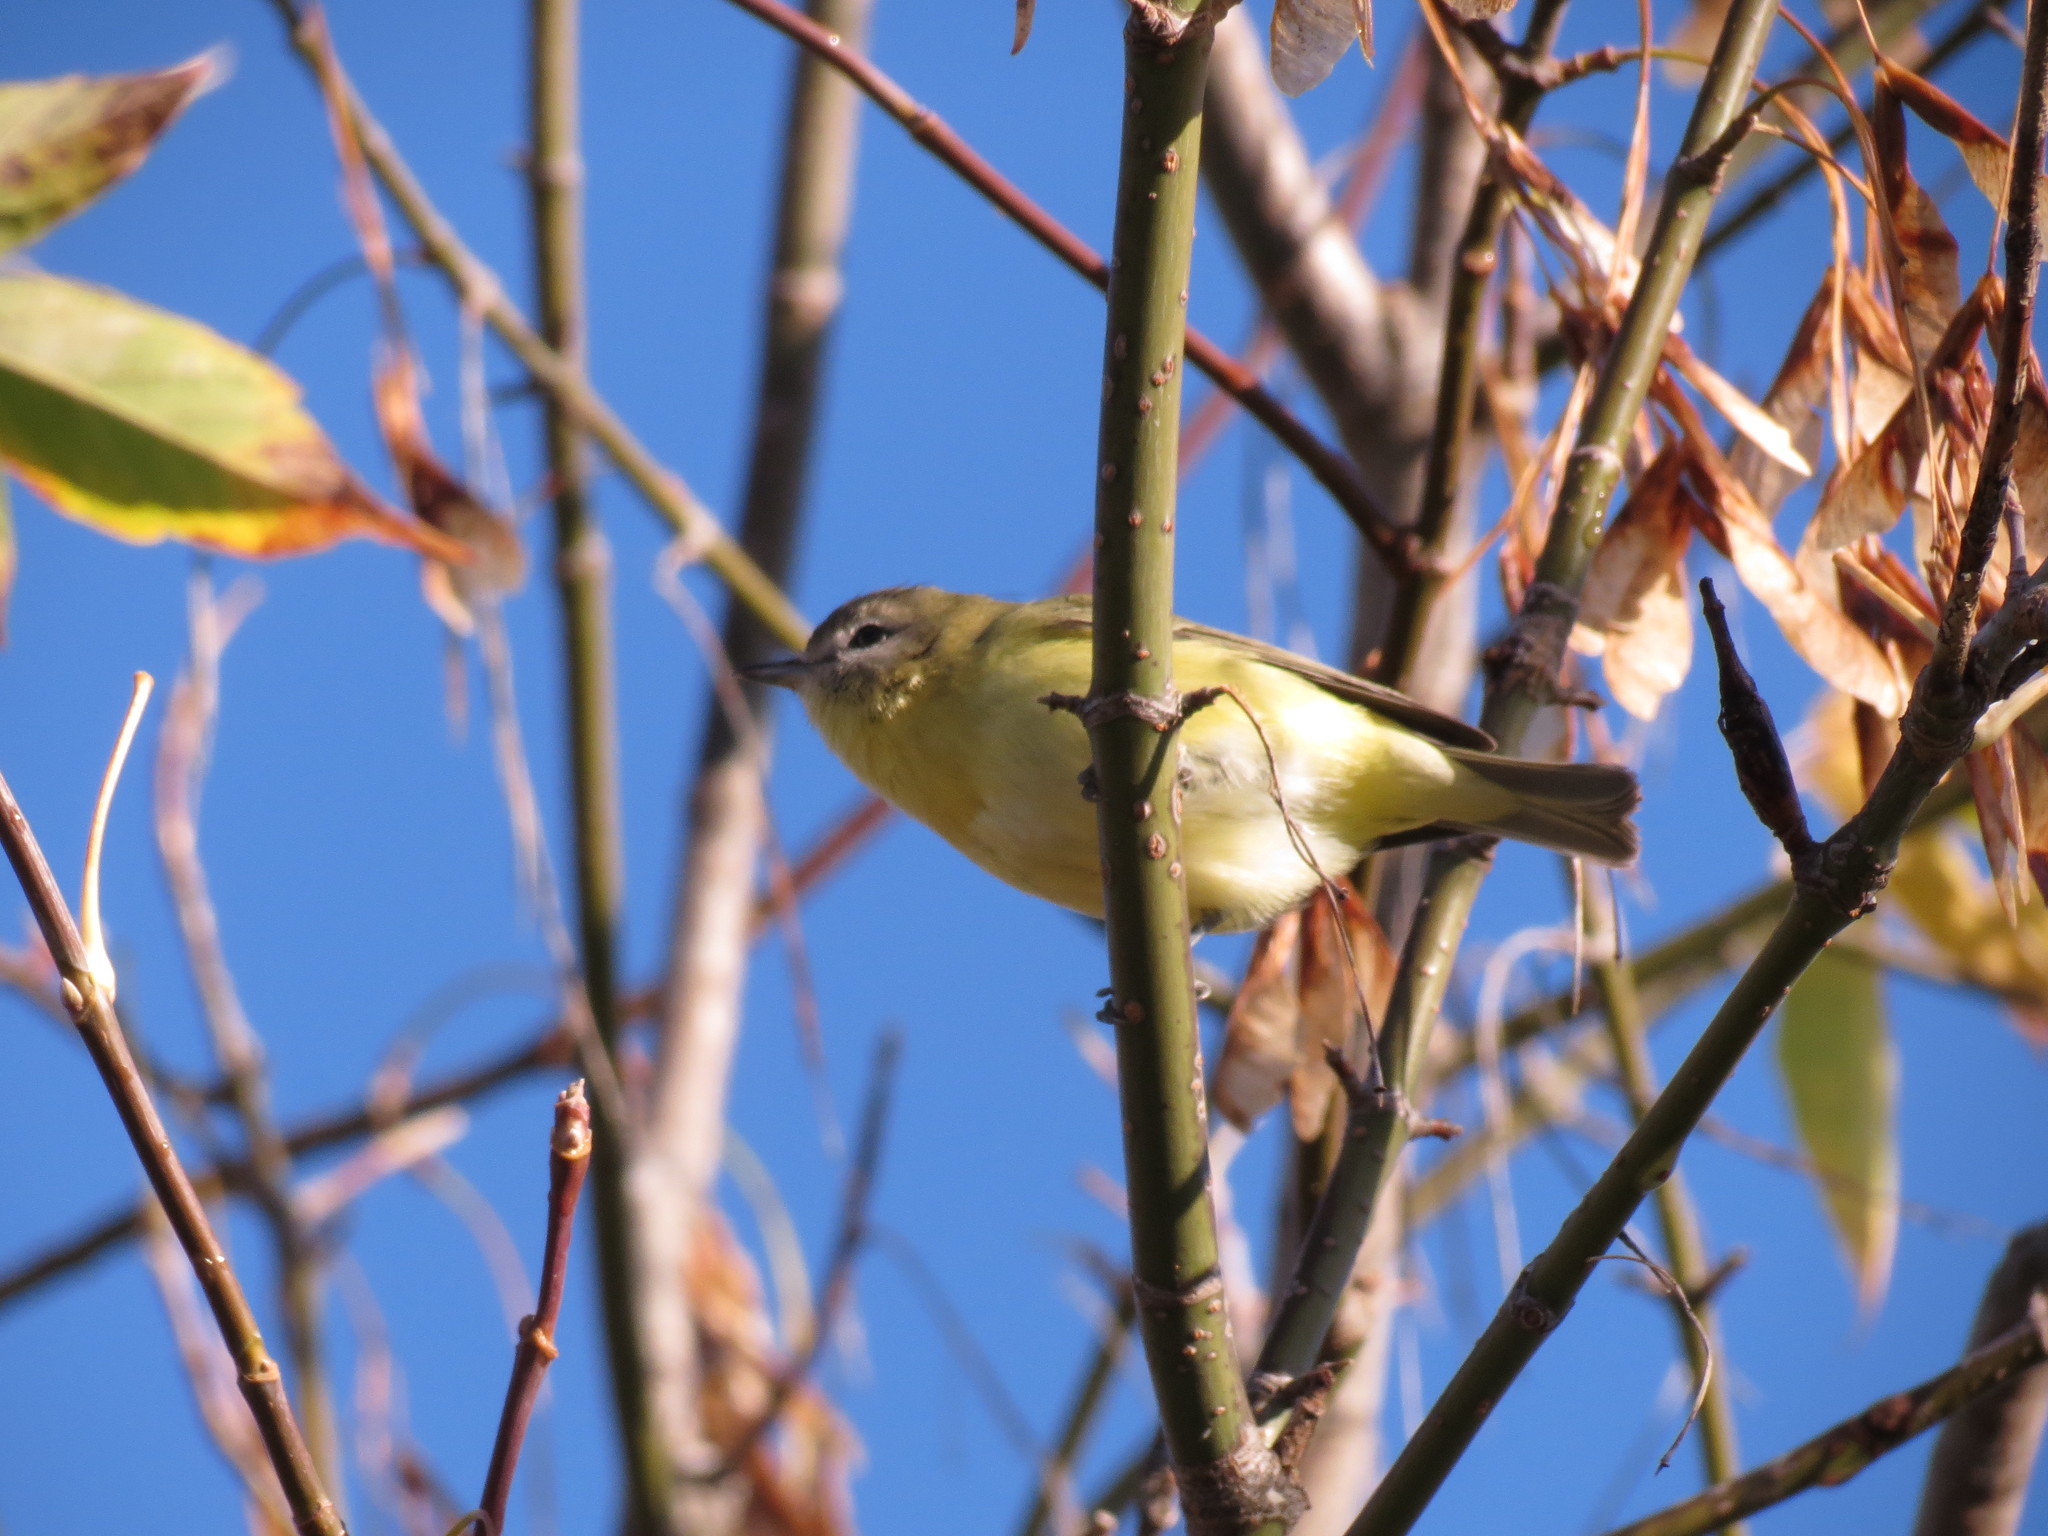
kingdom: Animalia
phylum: Chordata
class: Aves
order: Passeriformes
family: Vireonidae
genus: Vireo
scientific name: Vireo philadelphicus
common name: Philadelphia vireo
